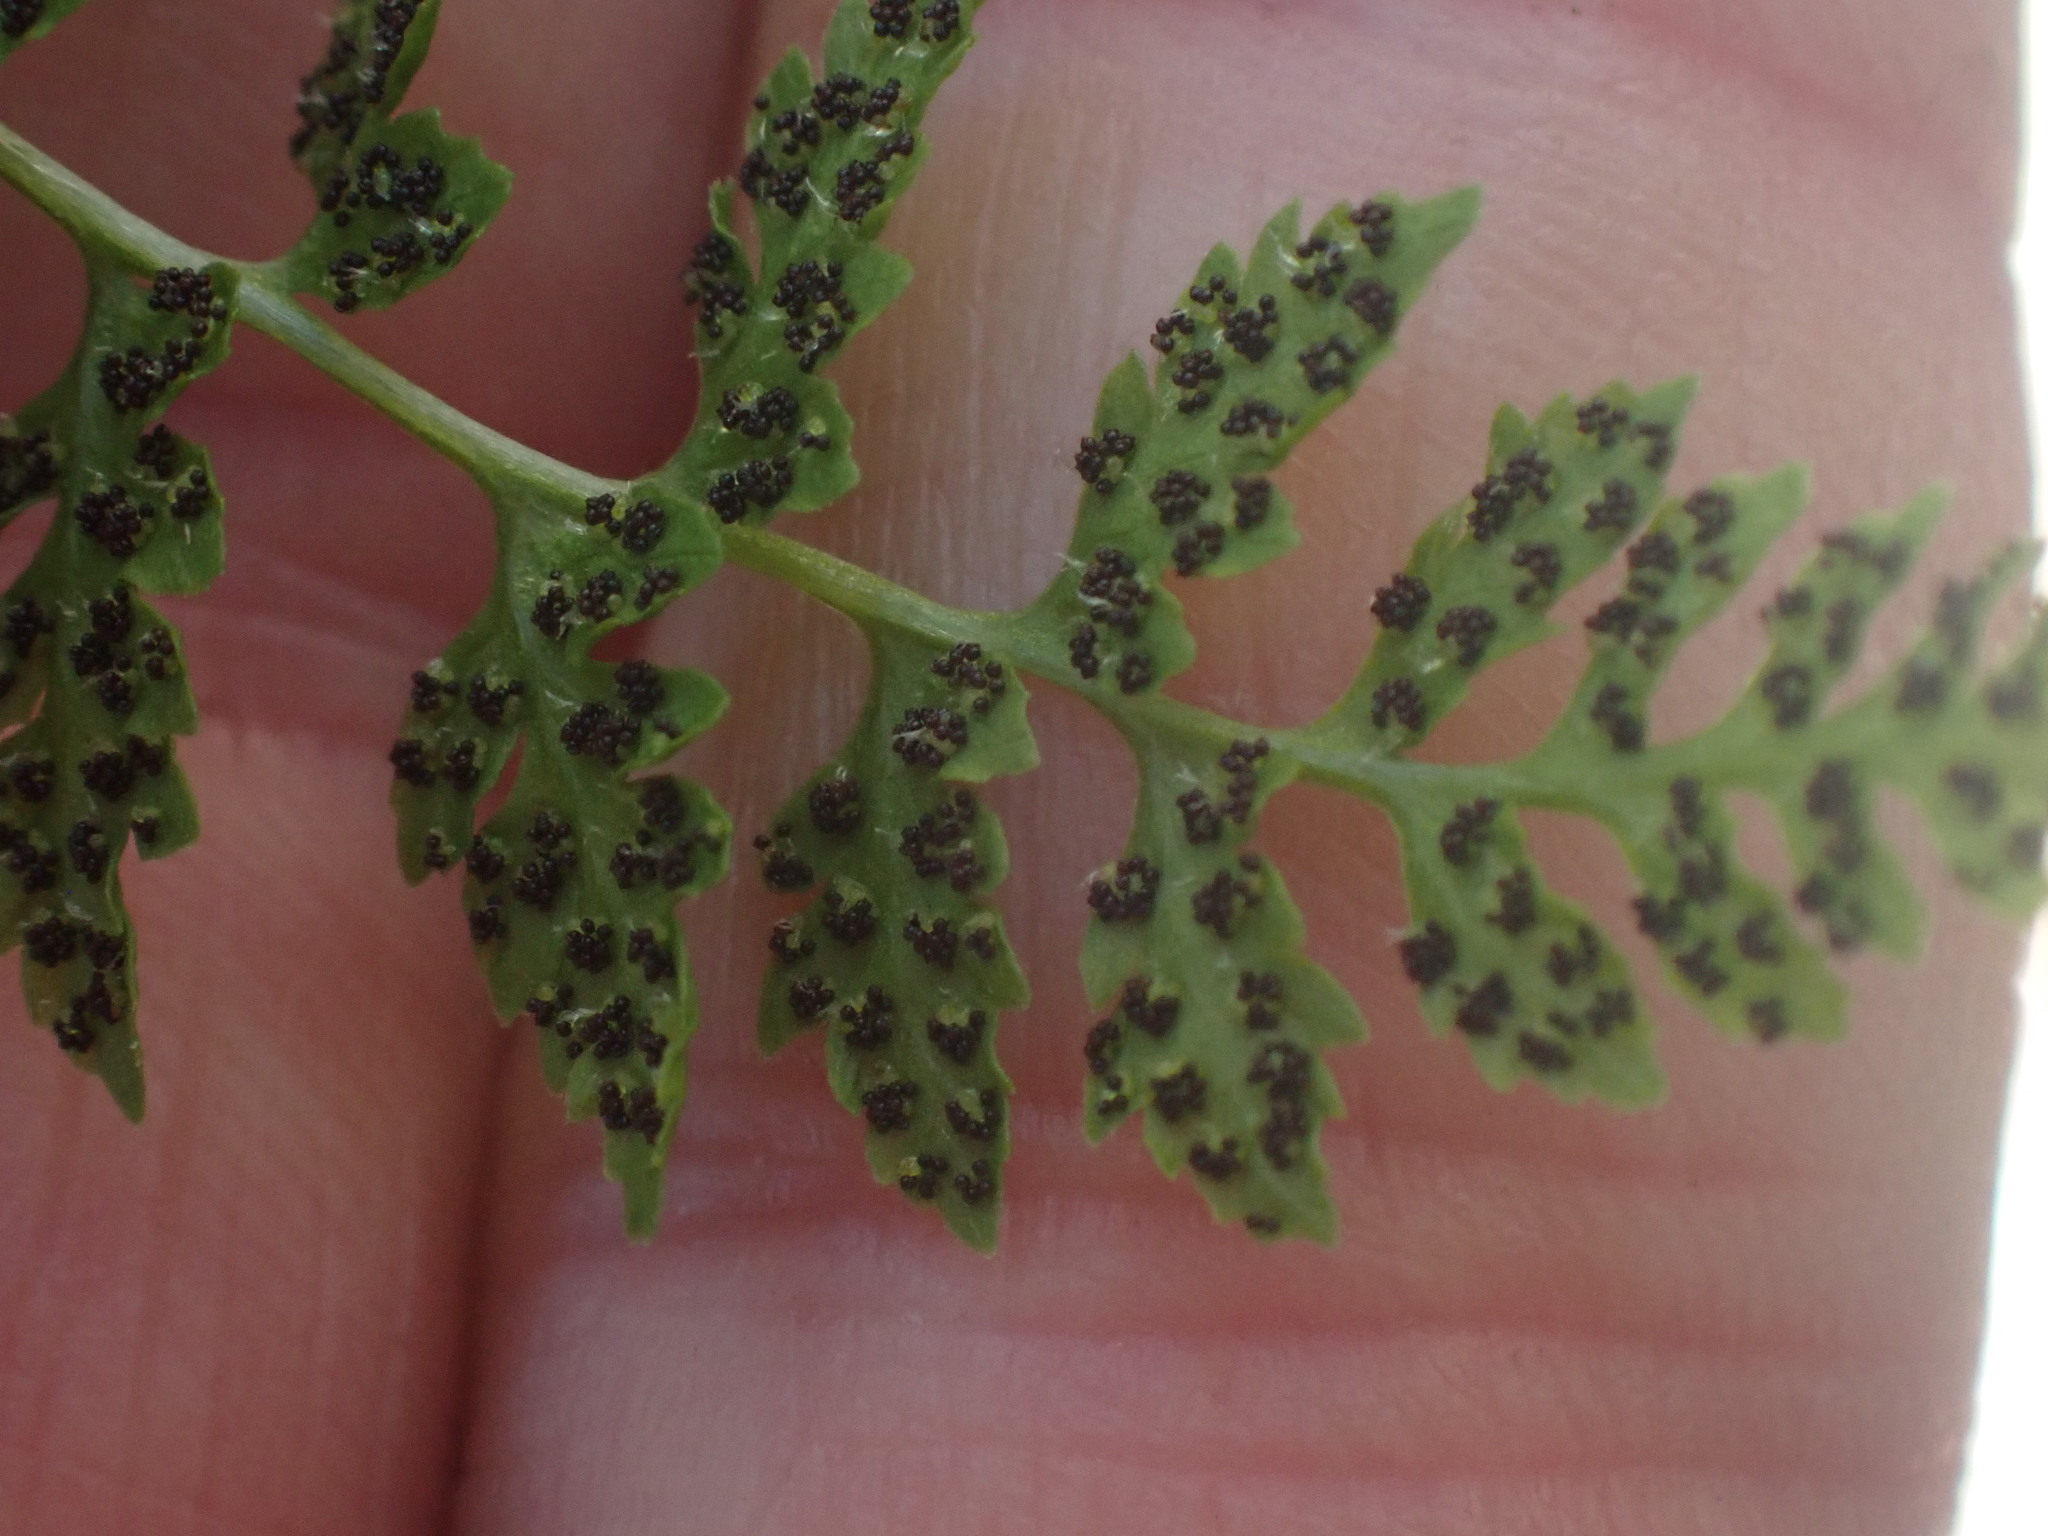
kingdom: Plantae
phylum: Tracheophyta
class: Polypodiopsida
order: Polypodiales
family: Cystopteridaceae
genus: Cystopteris
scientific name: Cystopteris fragilis
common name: Brittle bladder fern
